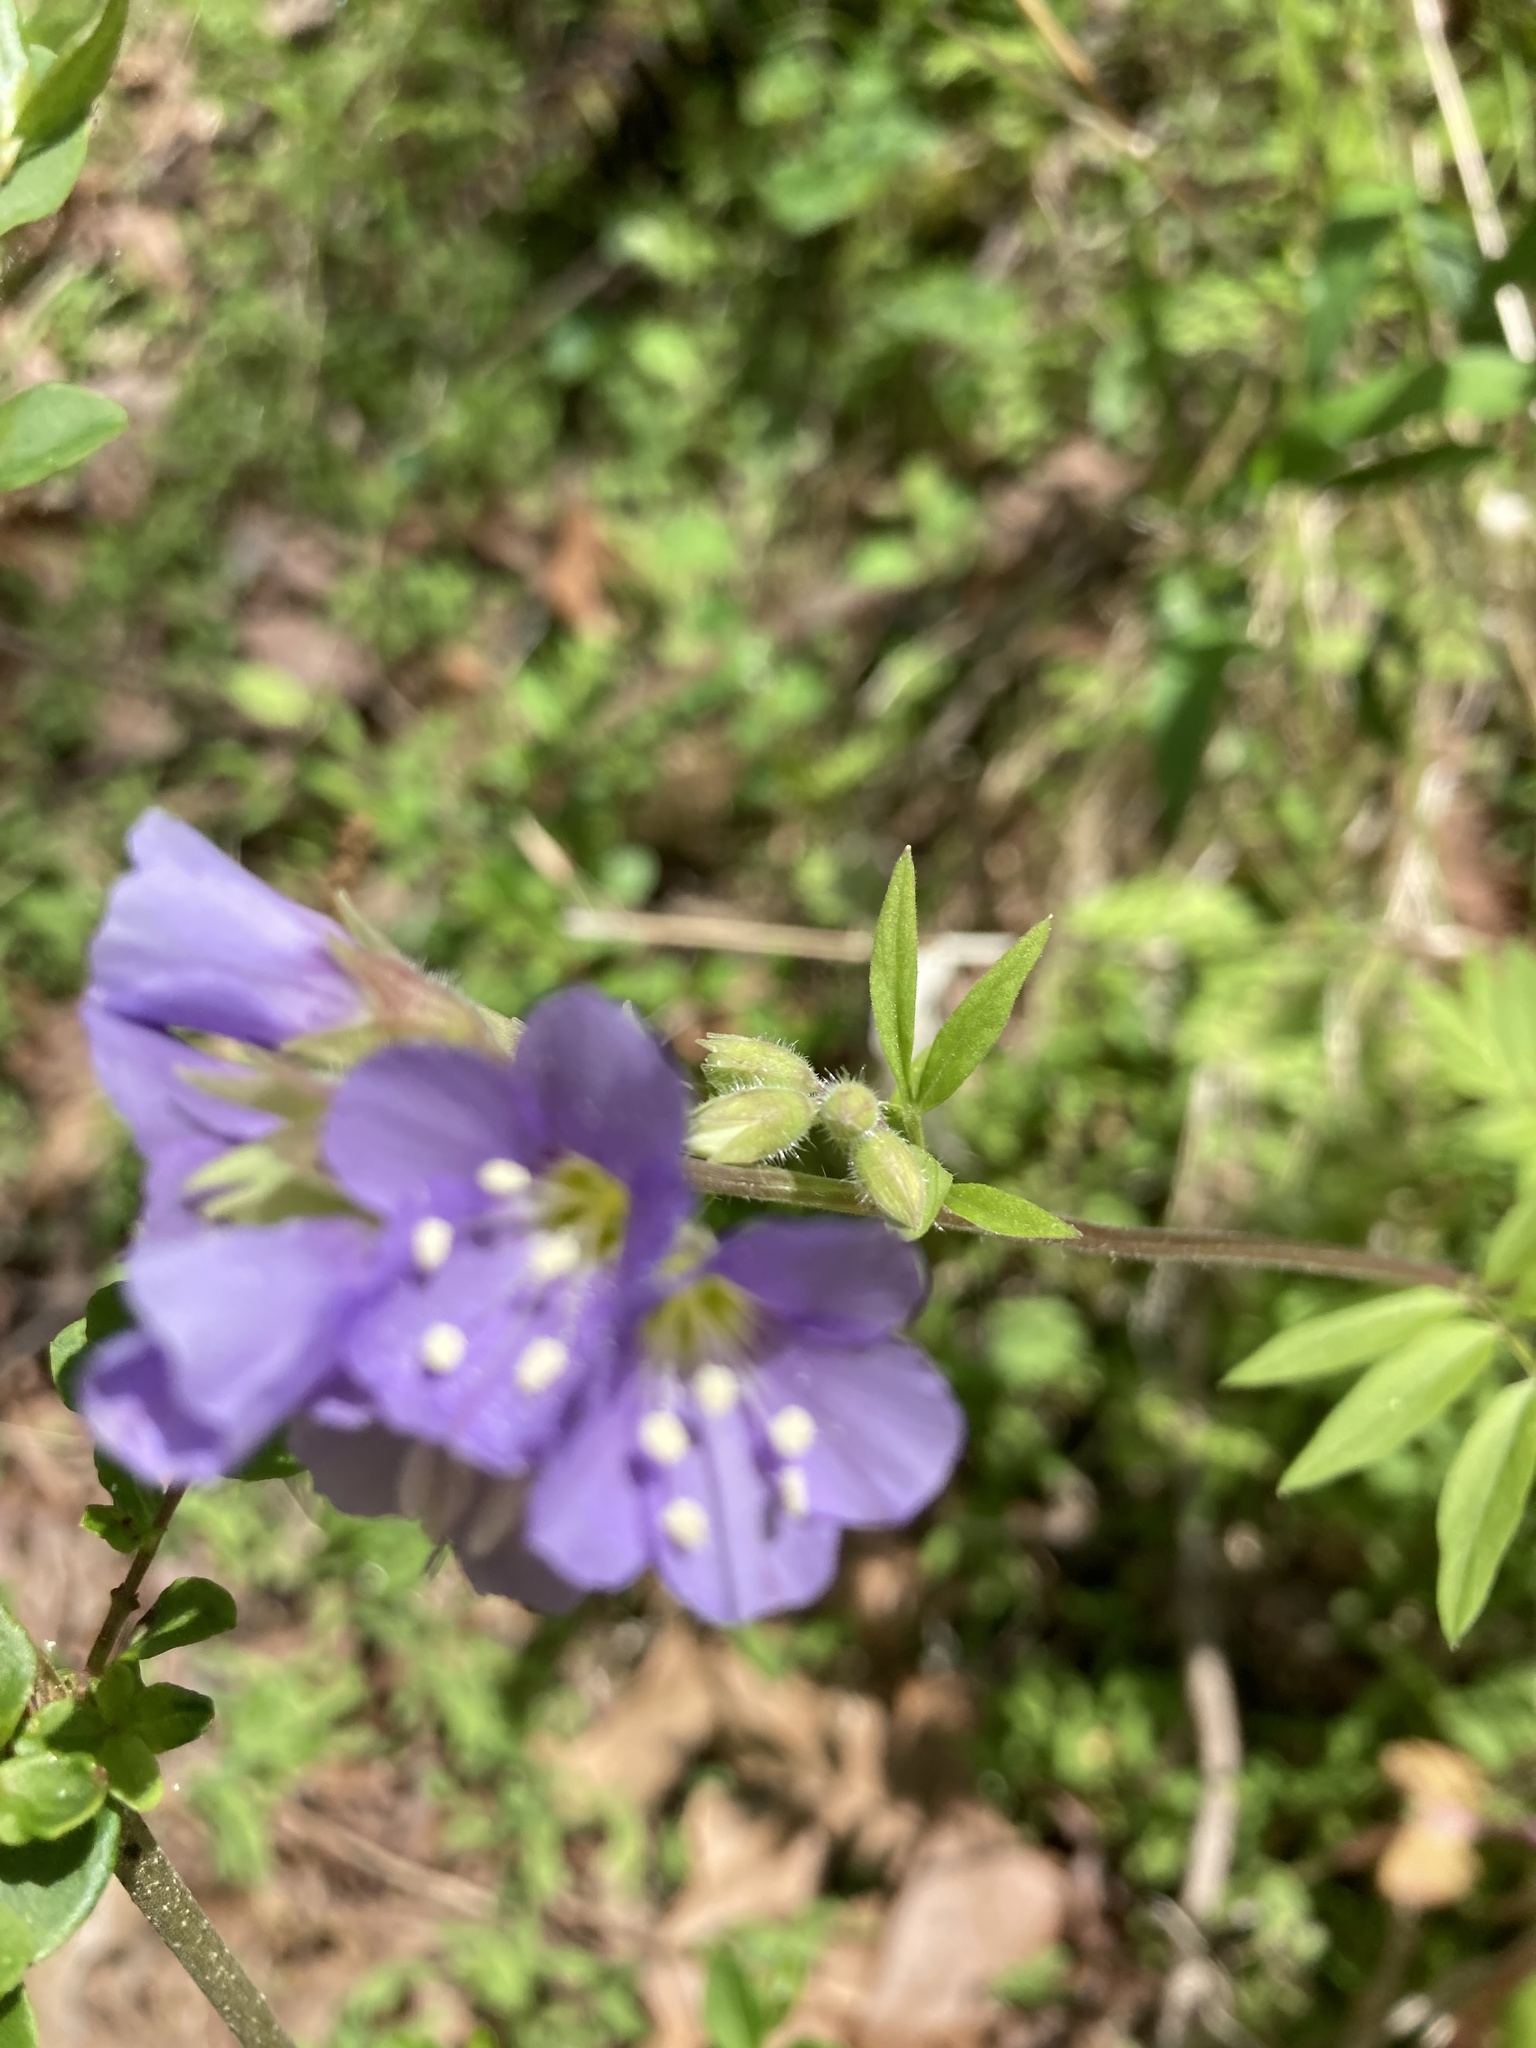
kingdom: Plantae
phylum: Tracheophyta
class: Magnoliopsida
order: Ericales
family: Polemoniaceae
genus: Polemonium
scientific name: Polemonium reptans
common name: Creeping jacob's-ladder
